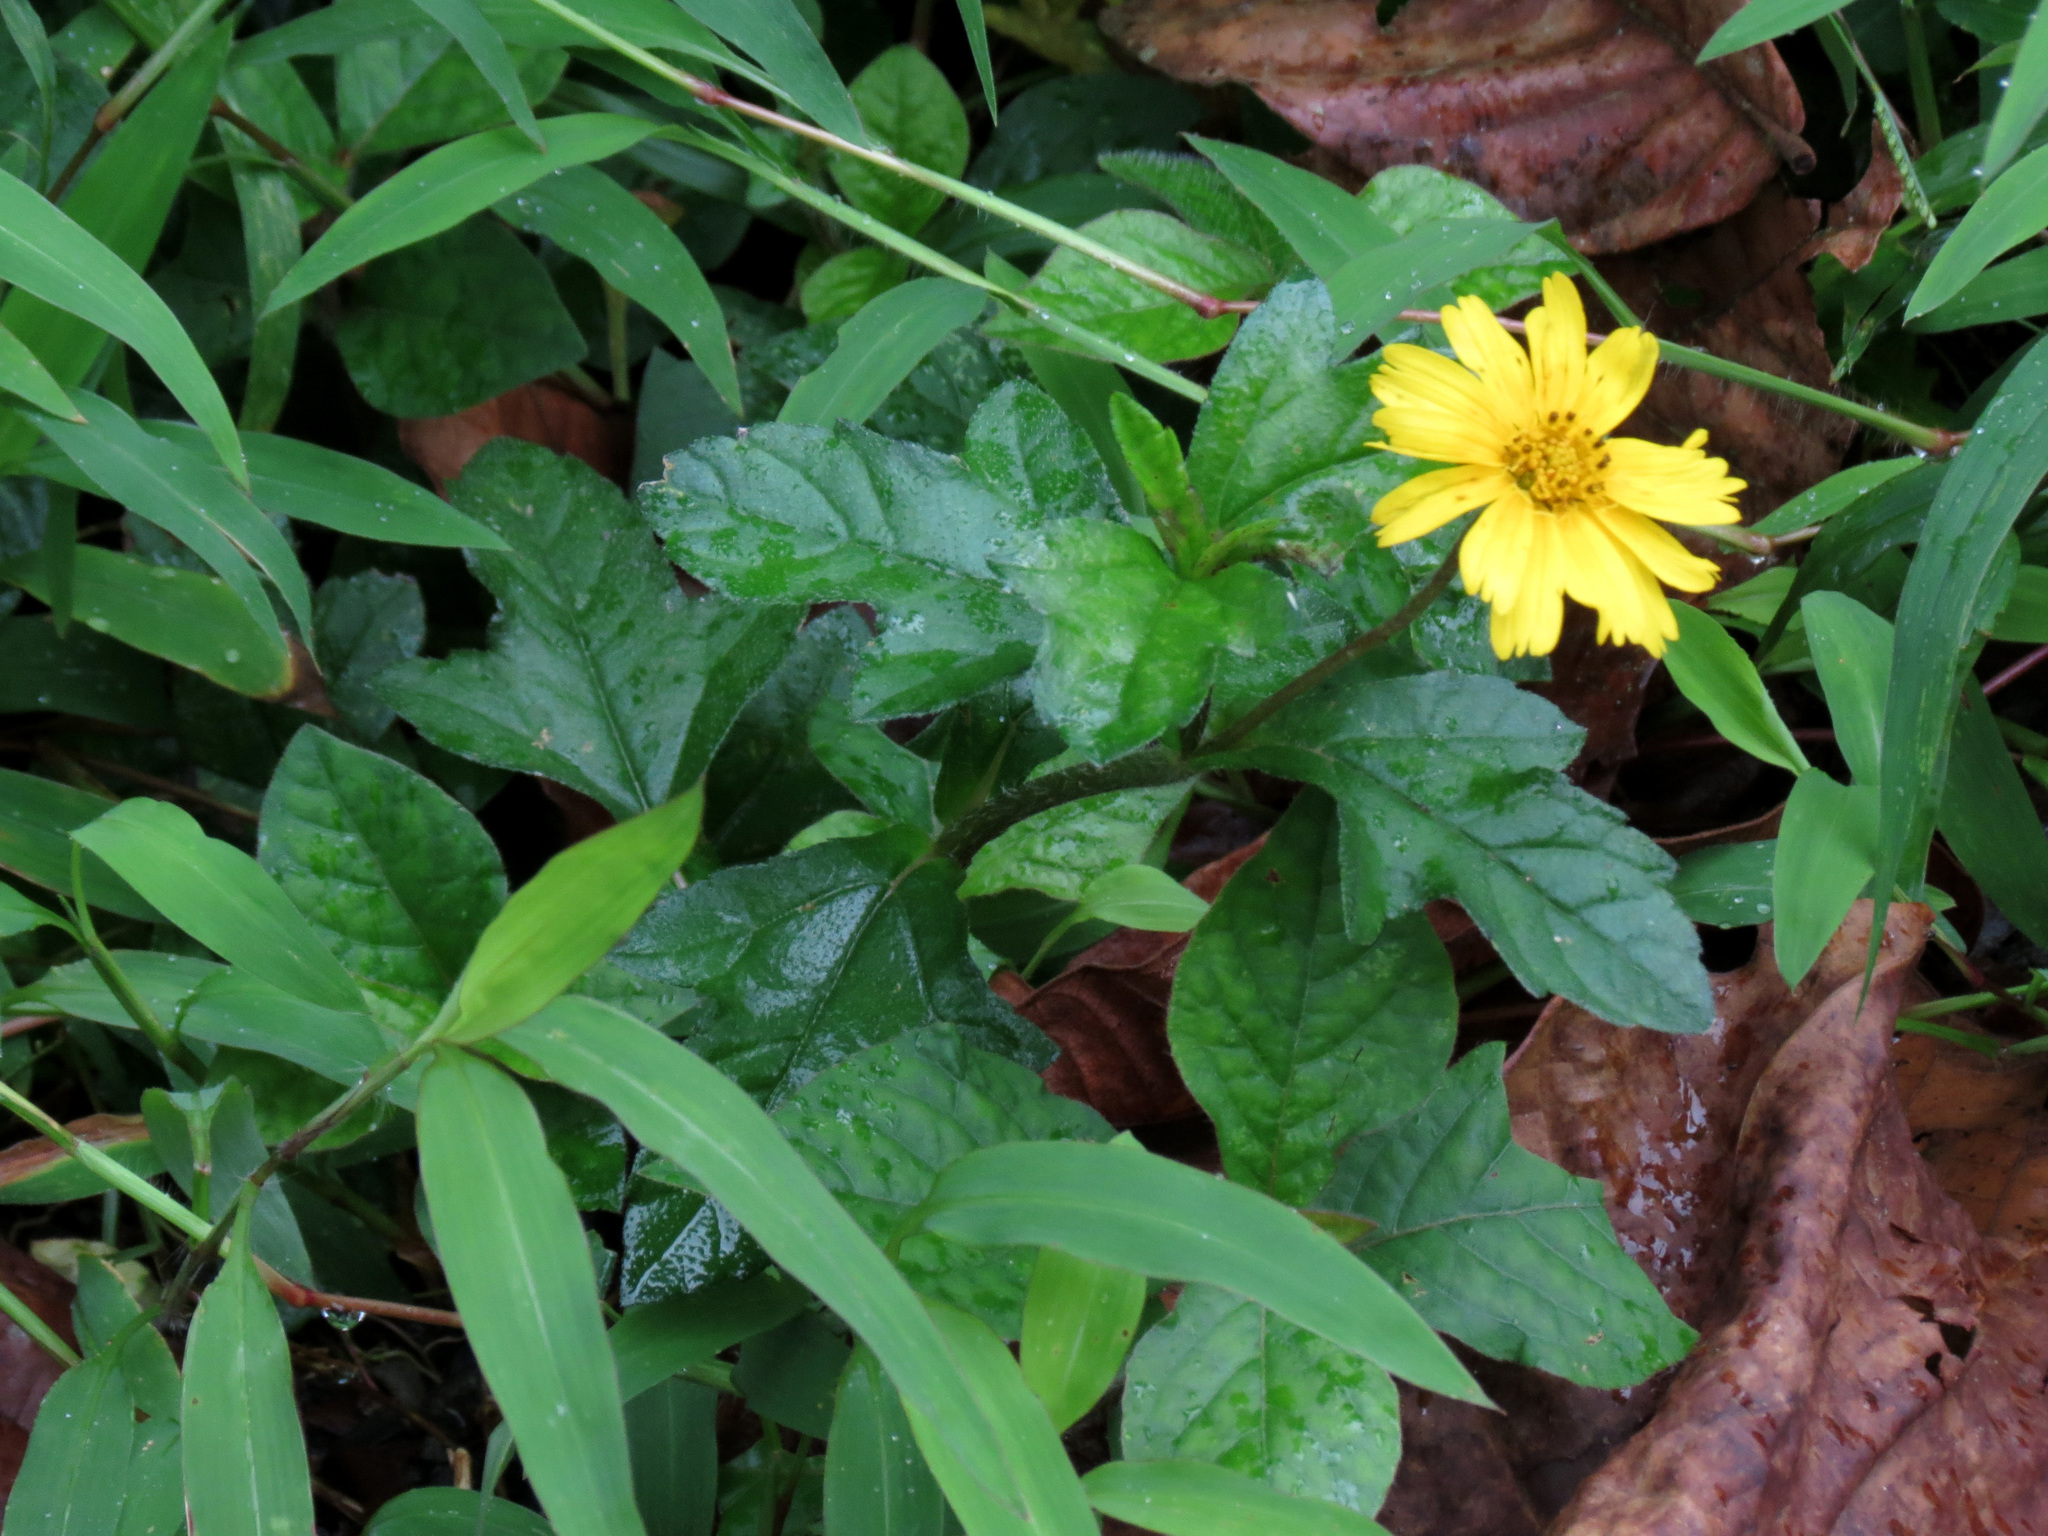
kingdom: Plantae
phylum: Tracheophyta
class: Magnoliopsida
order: Asterales
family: Asteraceae
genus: Sphagneticola
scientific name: Sphagneticola trilobata
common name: Bay biscayne creeping-oxeye
